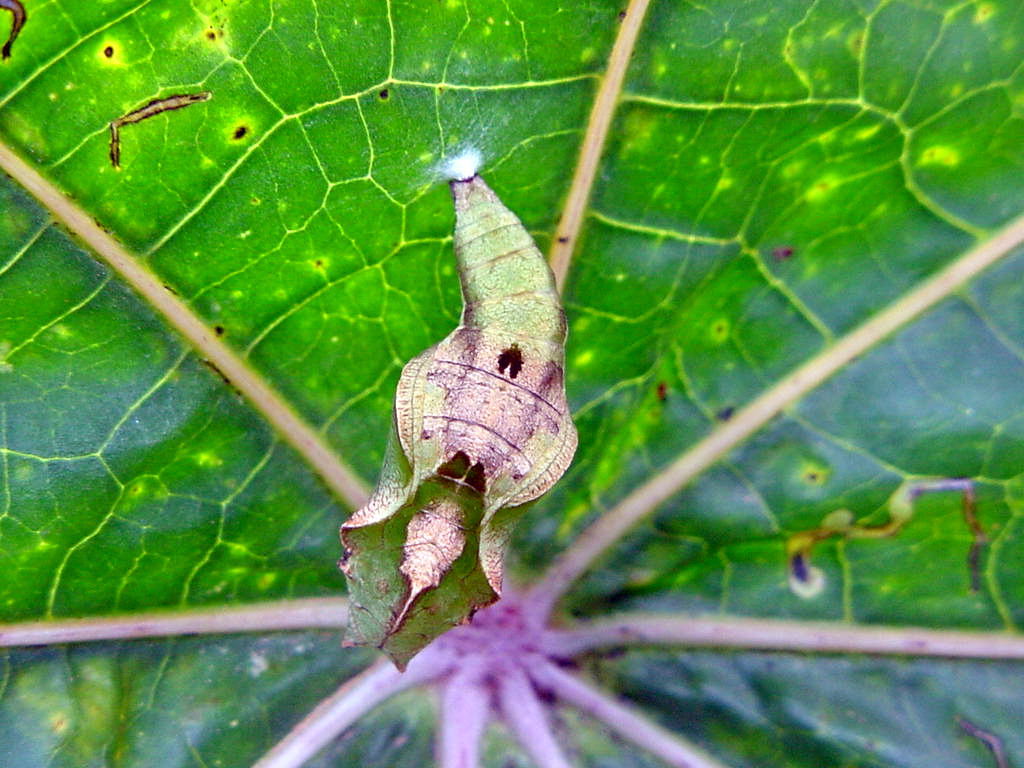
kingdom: Animalia
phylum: Arthropoda
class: Insecta
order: Lepidoptera
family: Nymphalidae
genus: Ariadne
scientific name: Ariadne merione
